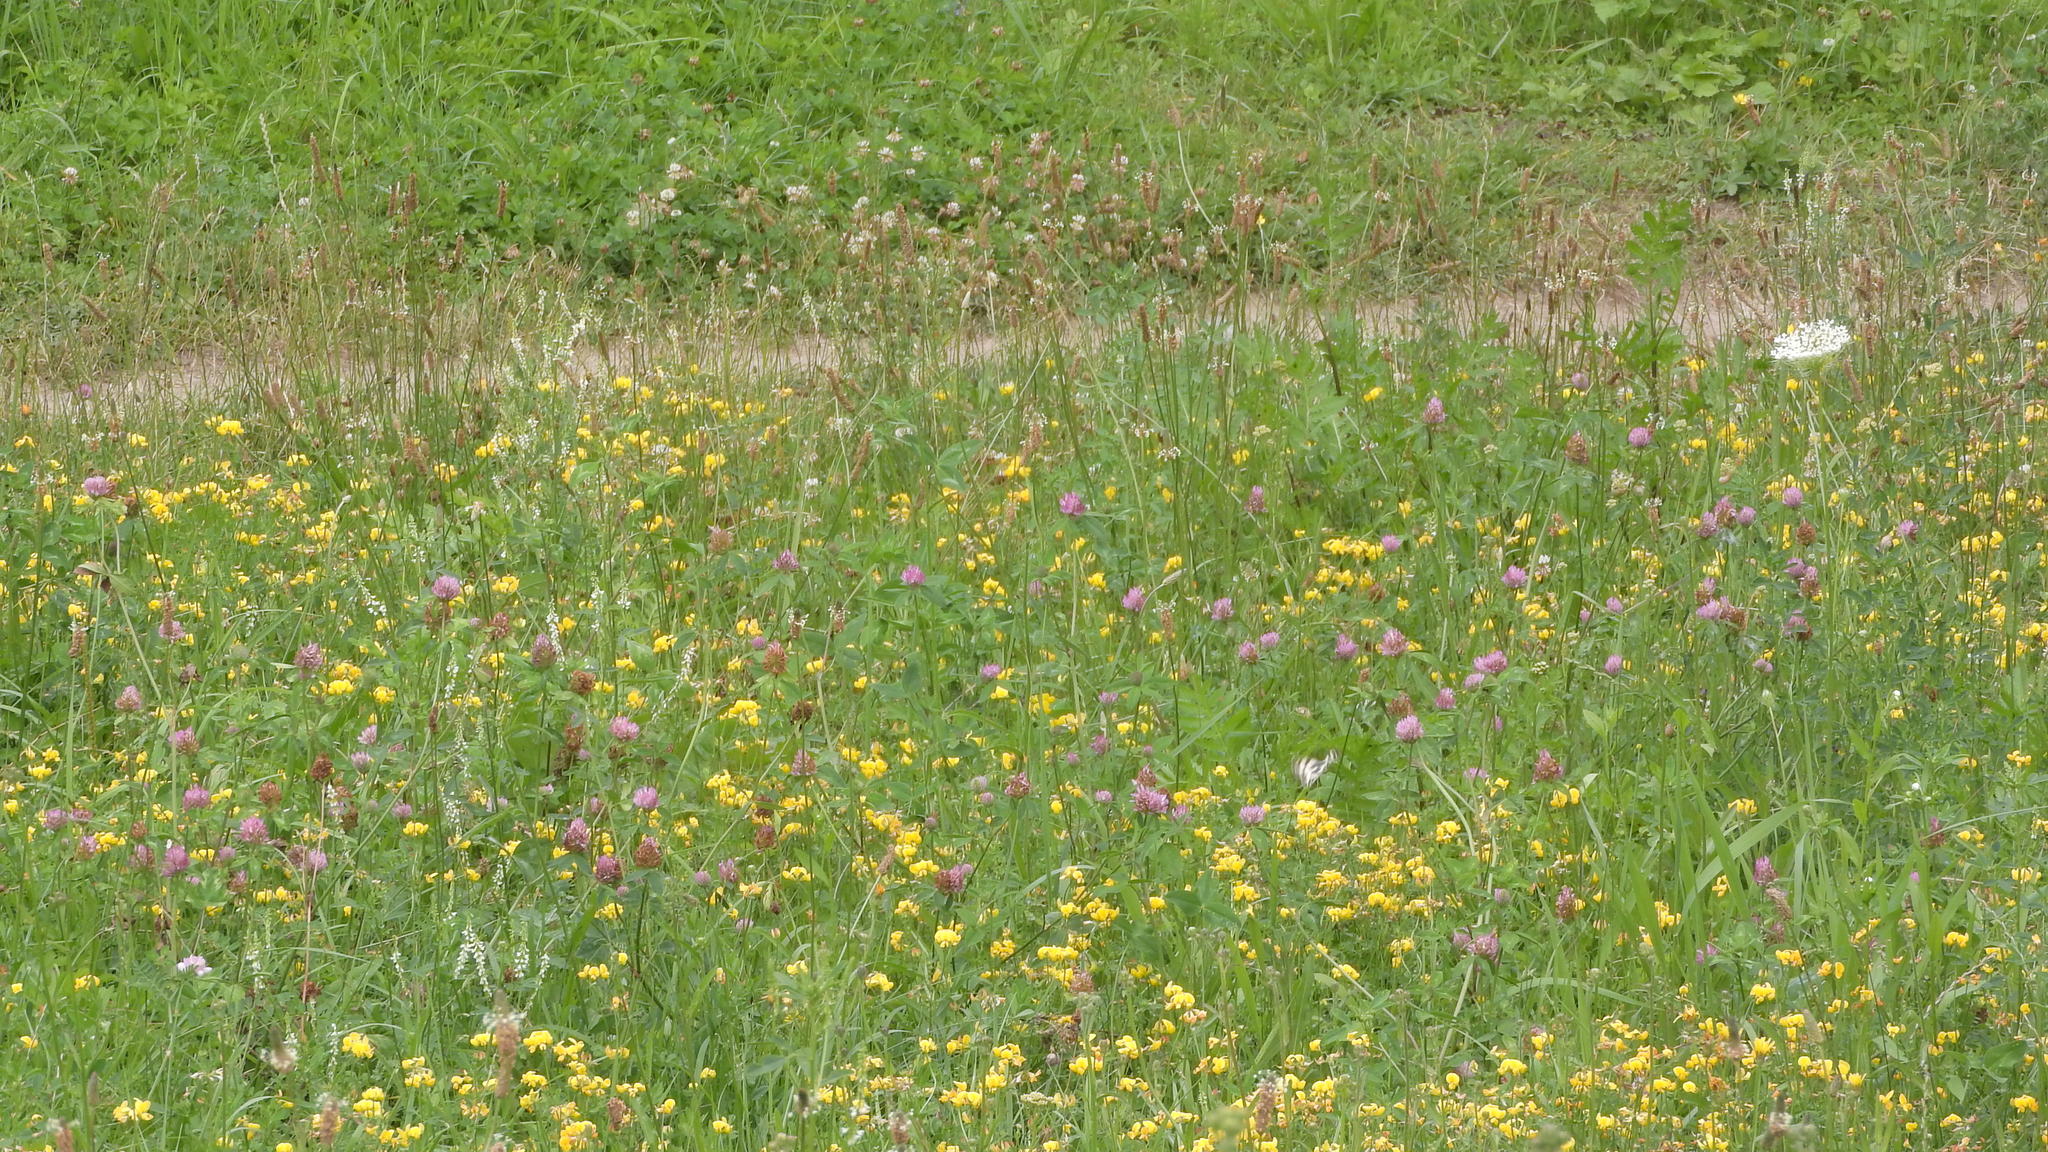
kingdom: Animalia
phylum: Arthropoda
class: Insecta
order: Lepidoptera
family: Nymphalidae
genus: Melanargia
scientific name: Melanargia galathea
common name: Marbled white
